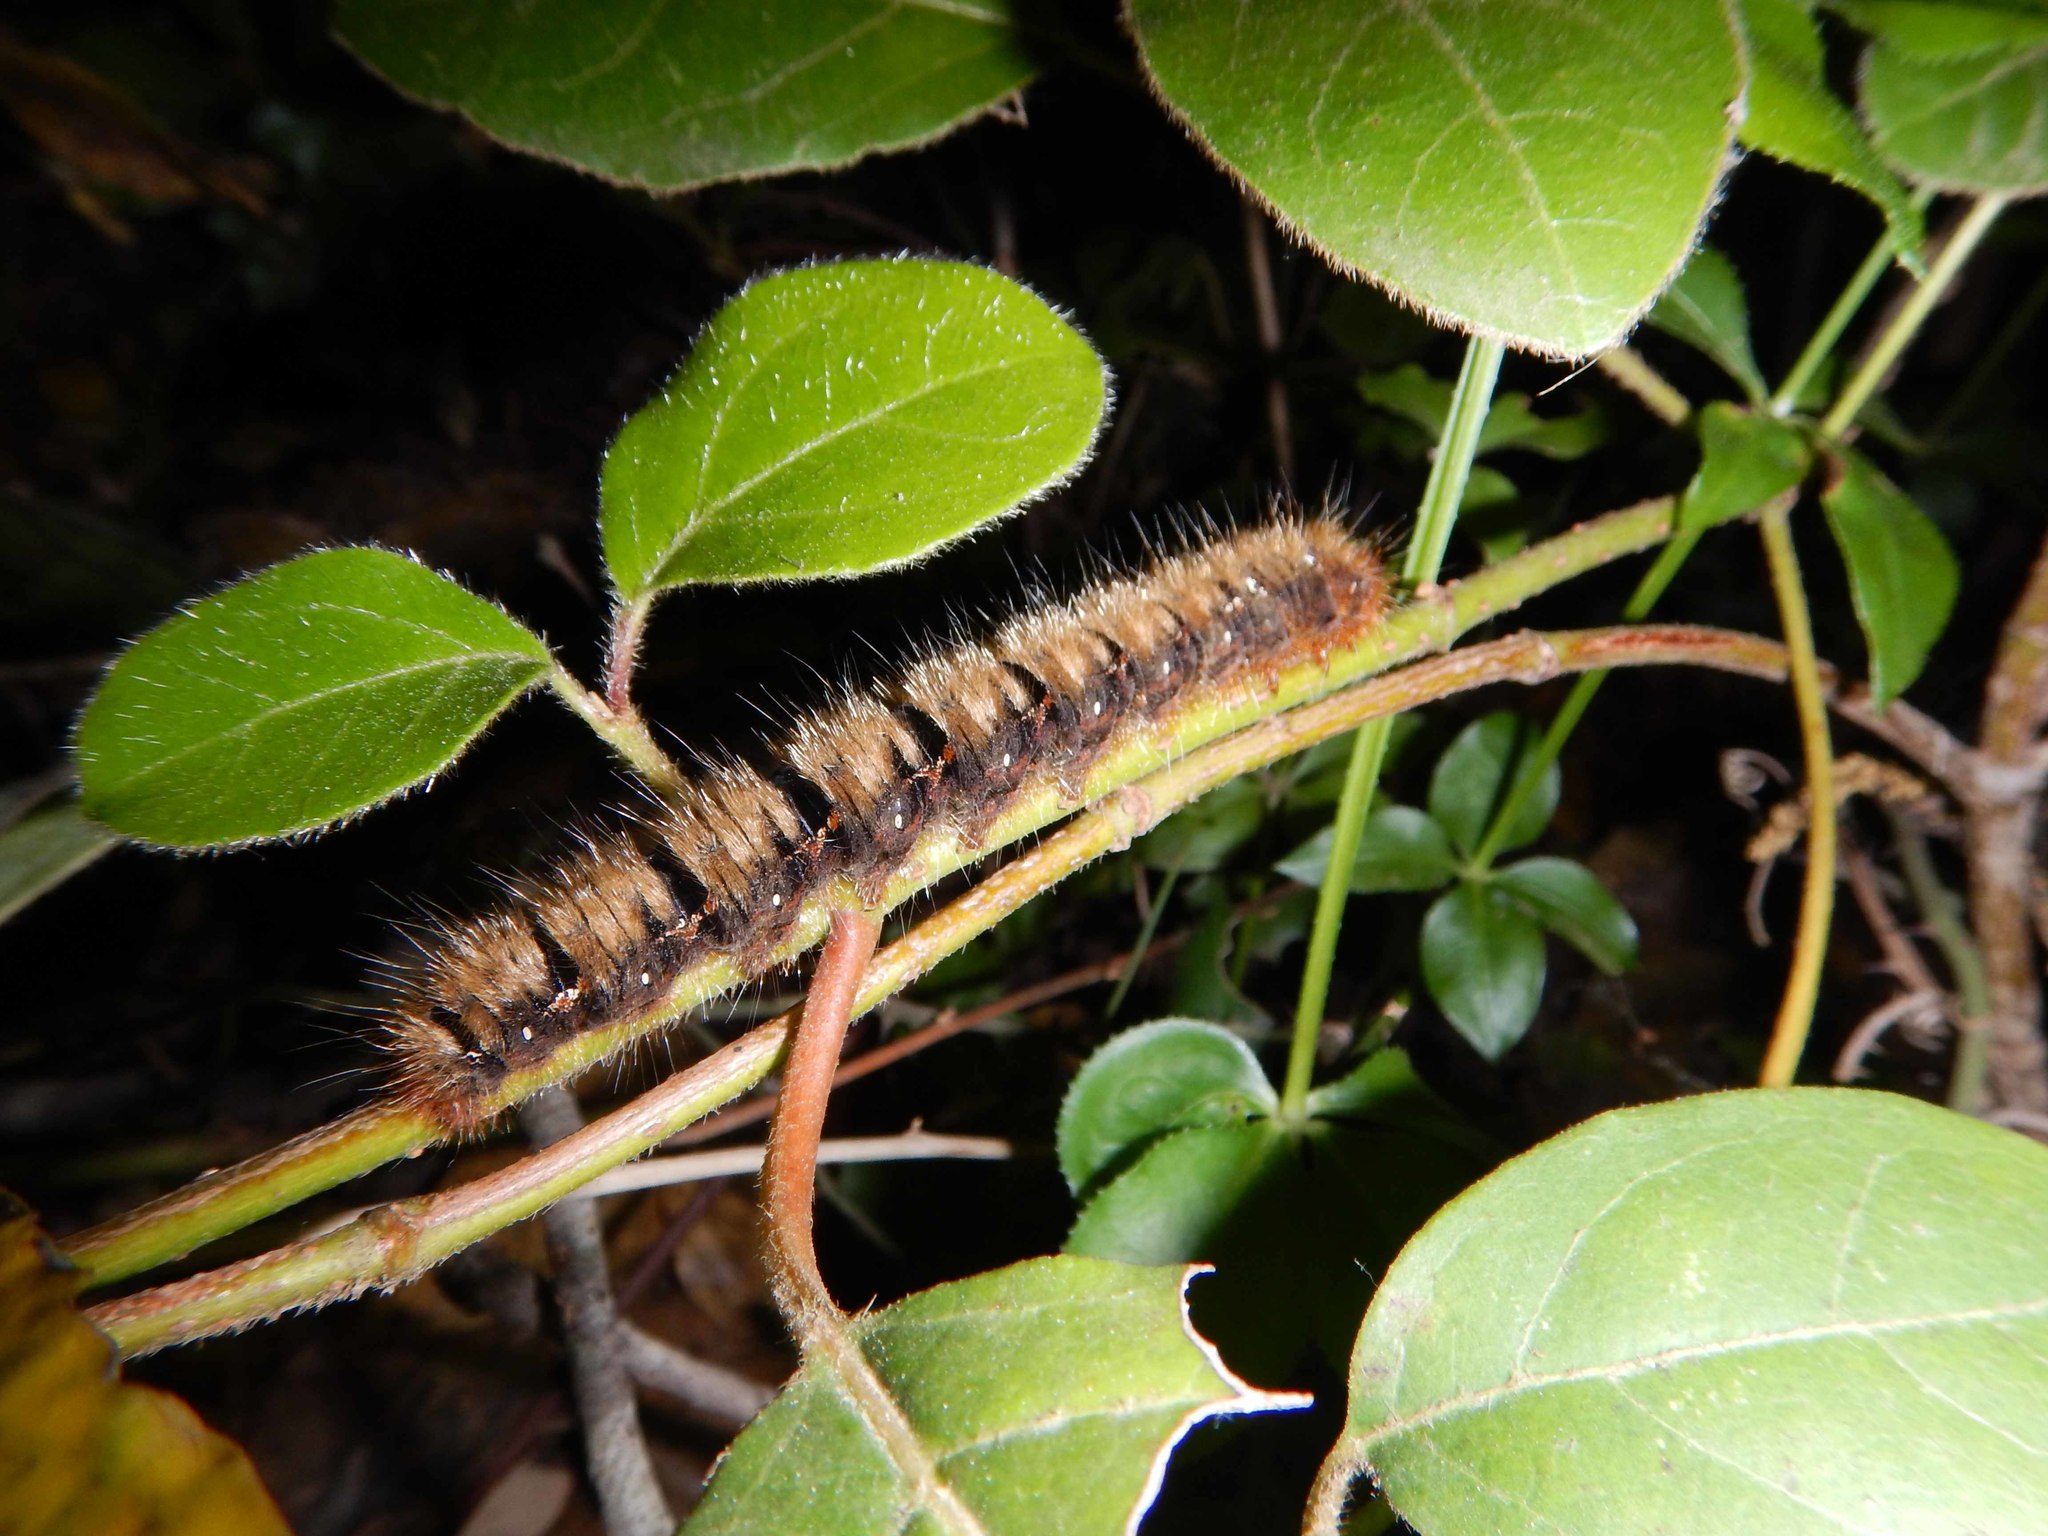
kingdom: Animalia
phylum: Arthropoda
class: Insecta
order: Lepidoptera
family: Lasiocampidae
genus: Lasiocampa
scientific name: Lasiocampa quercus
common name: Oak eggar
